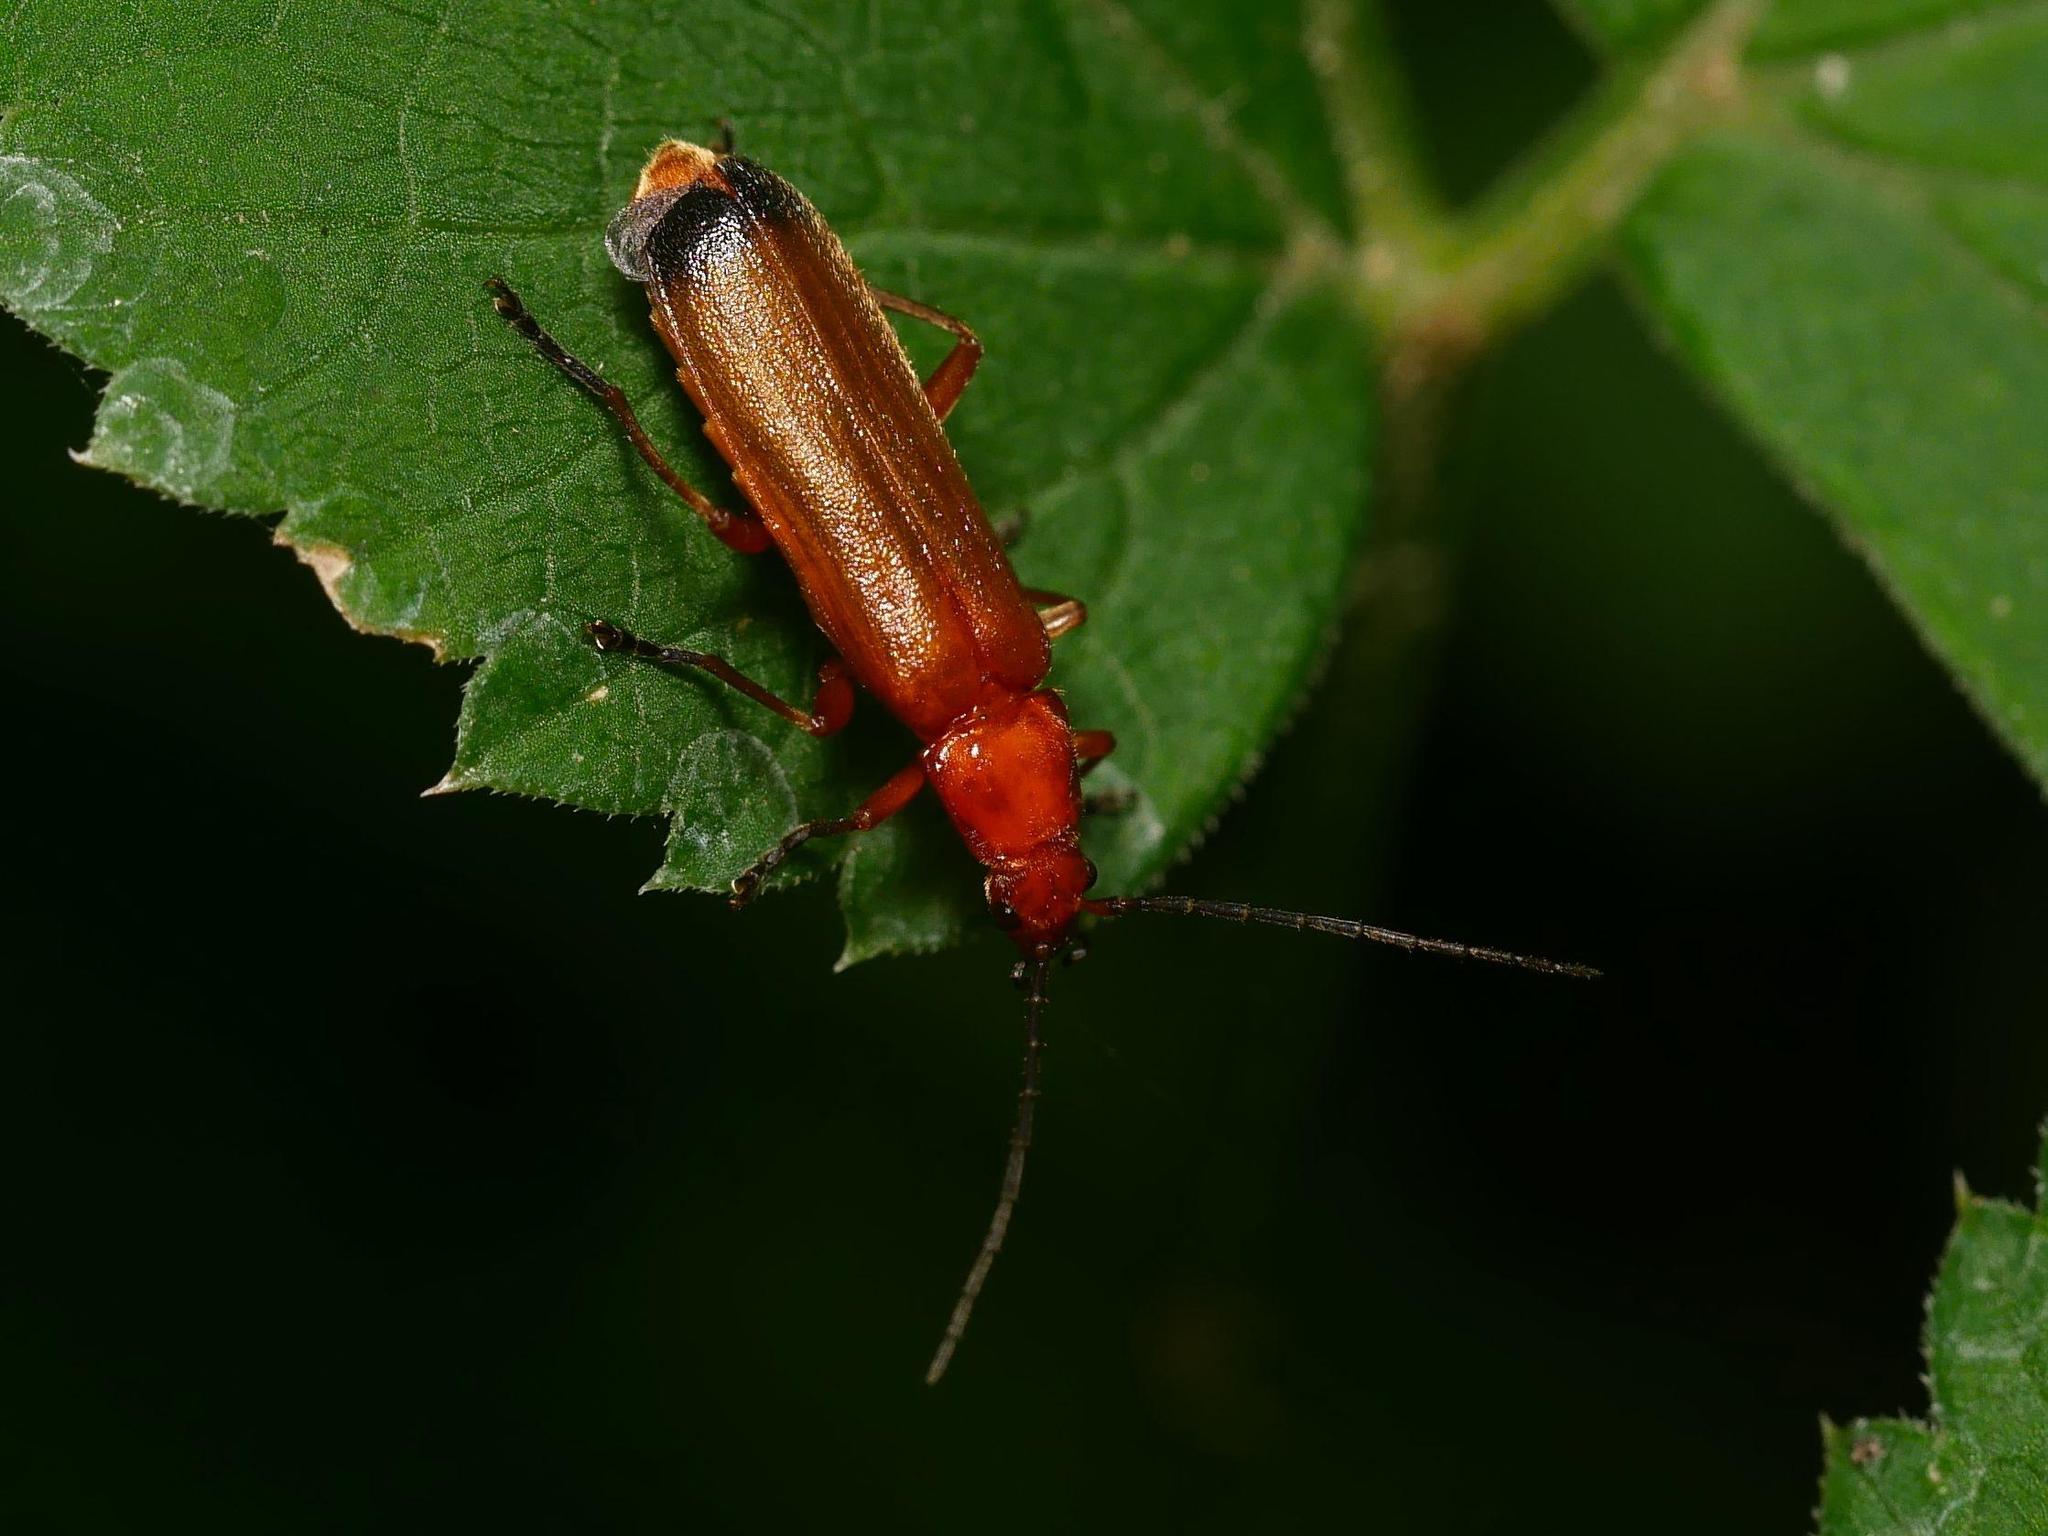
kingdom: Animalia
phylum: Arthropoda
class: Insecta
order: Coleoptera
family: Cantharidae
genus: Rhagonycha
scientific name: Rhagonycha fulva
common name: Common red soldier beetle
